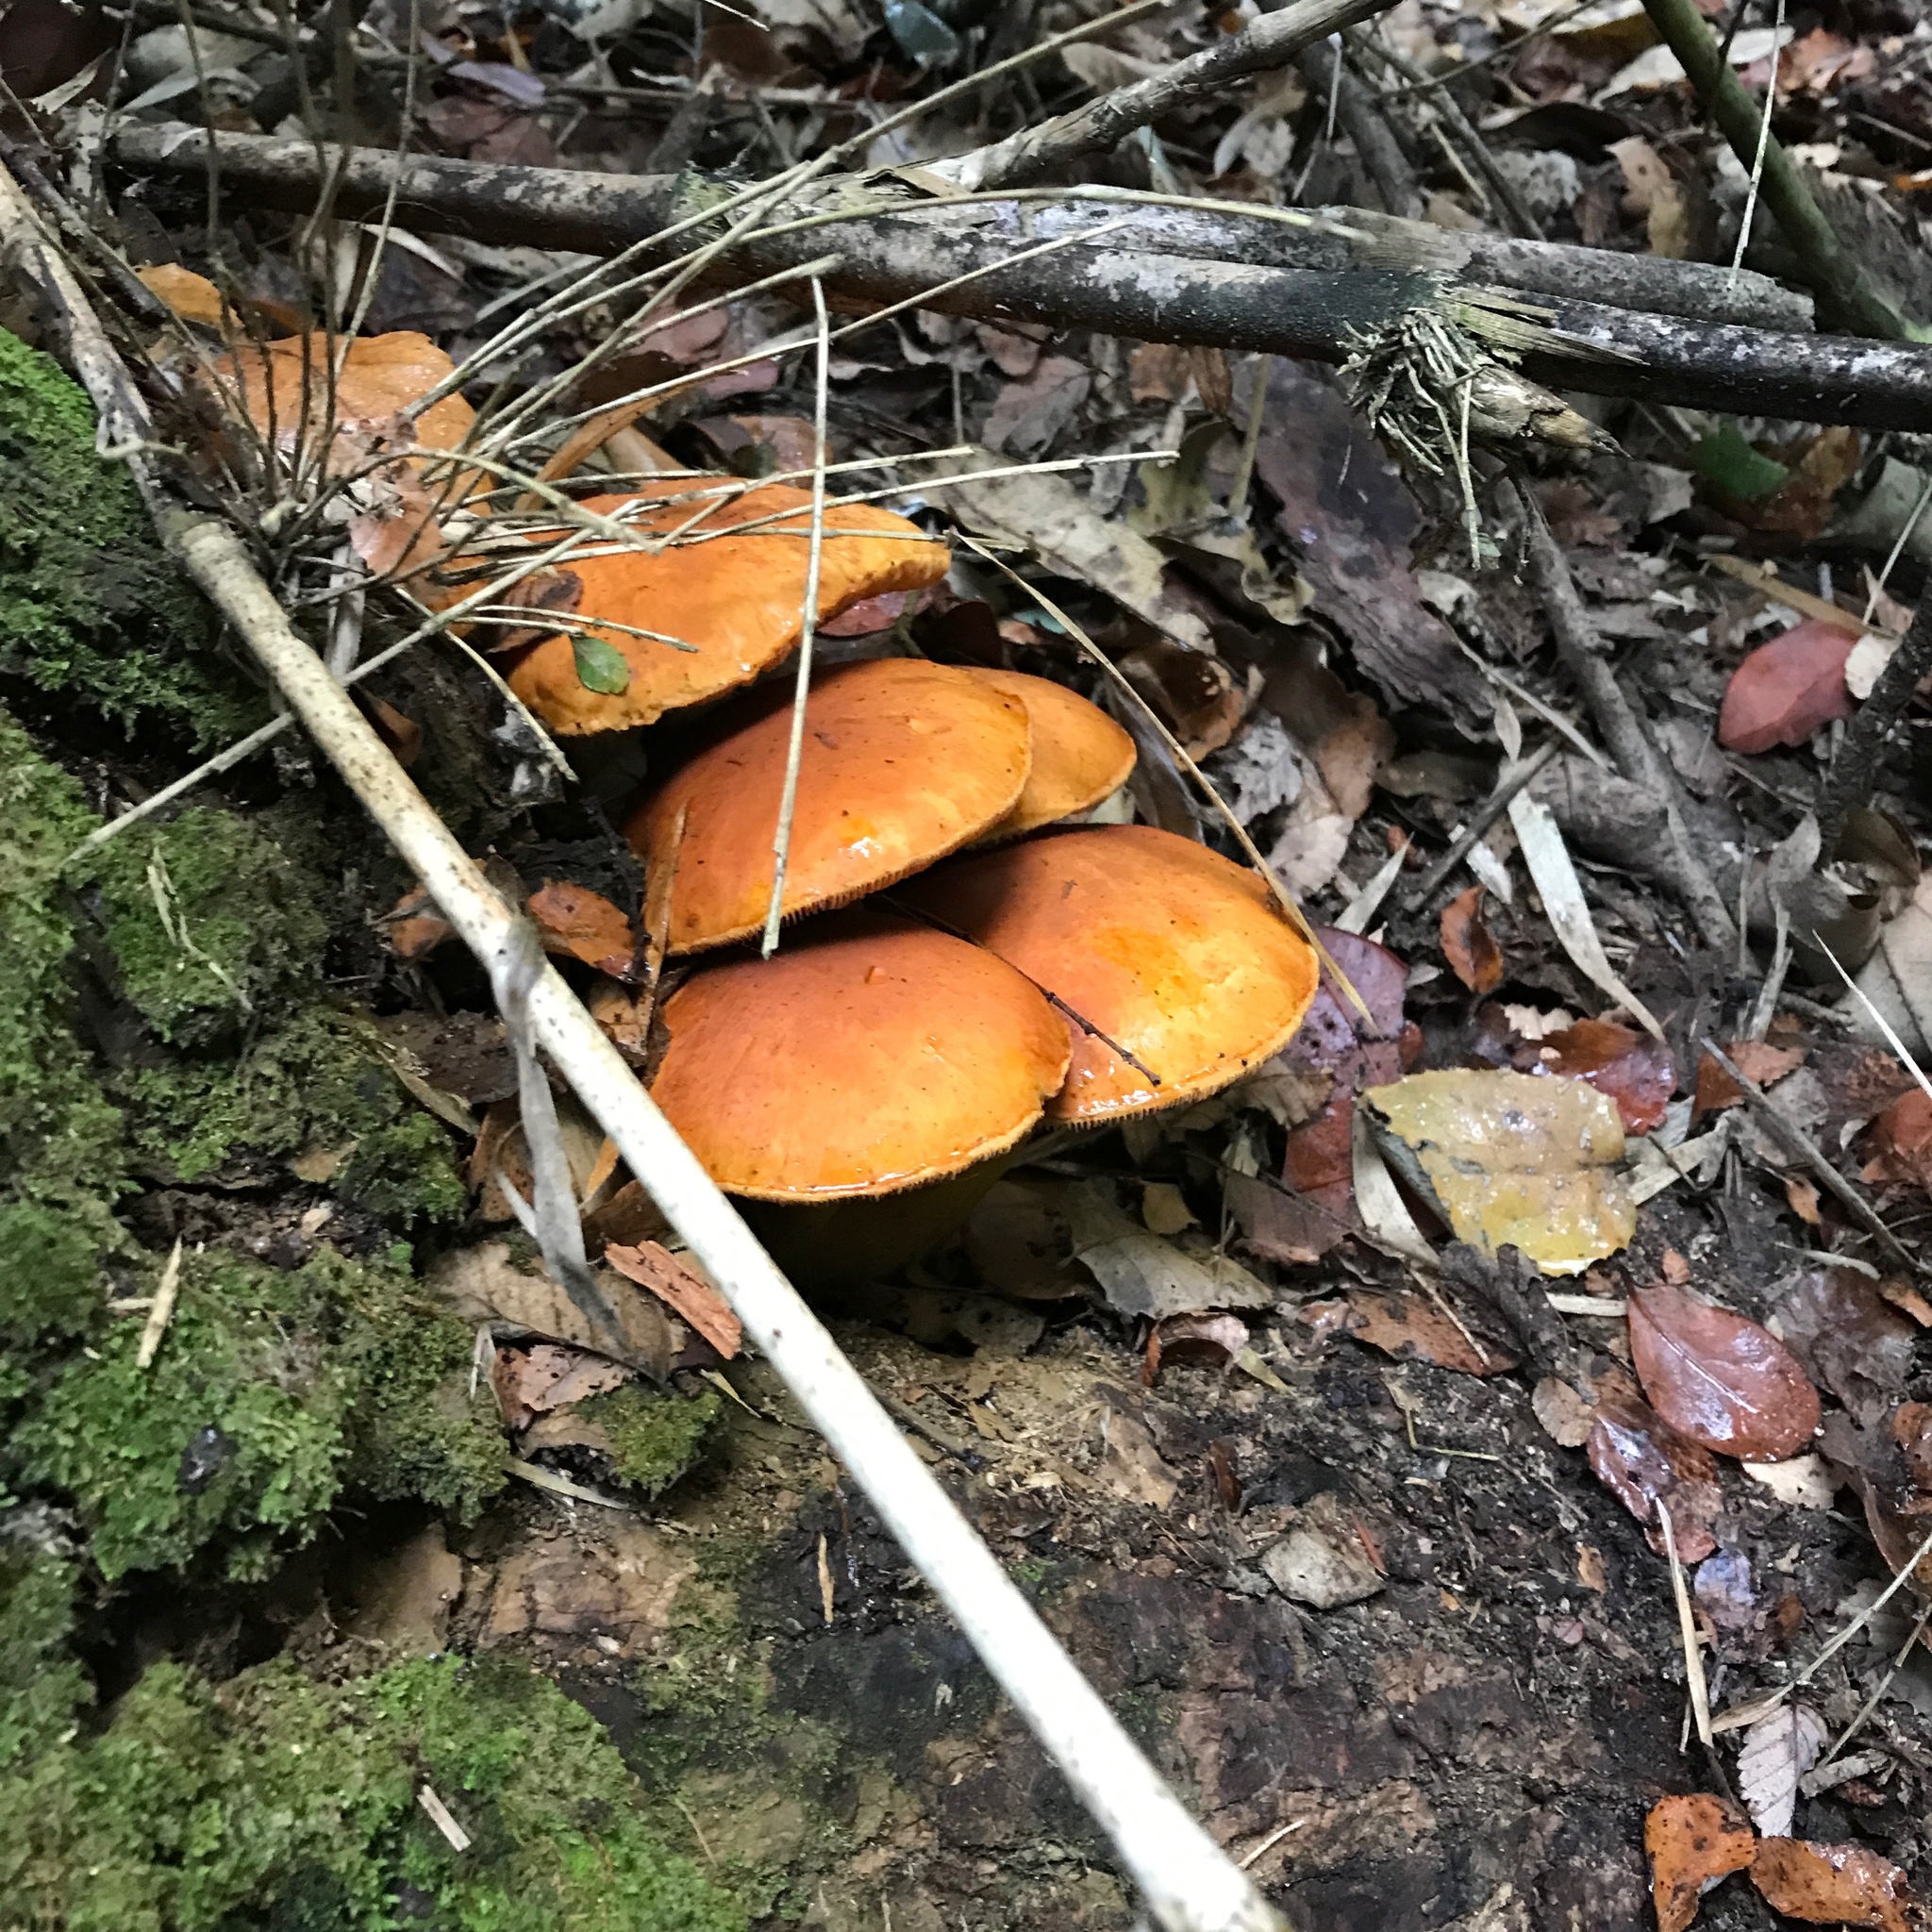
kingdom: Fungi
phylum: Basidiomycota
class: Agaricomycetes
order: Agaricales
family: Hymenogastraceae
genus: Gymnopilus
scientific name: Gymnopilus junonius
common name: Spectacular rustgill
